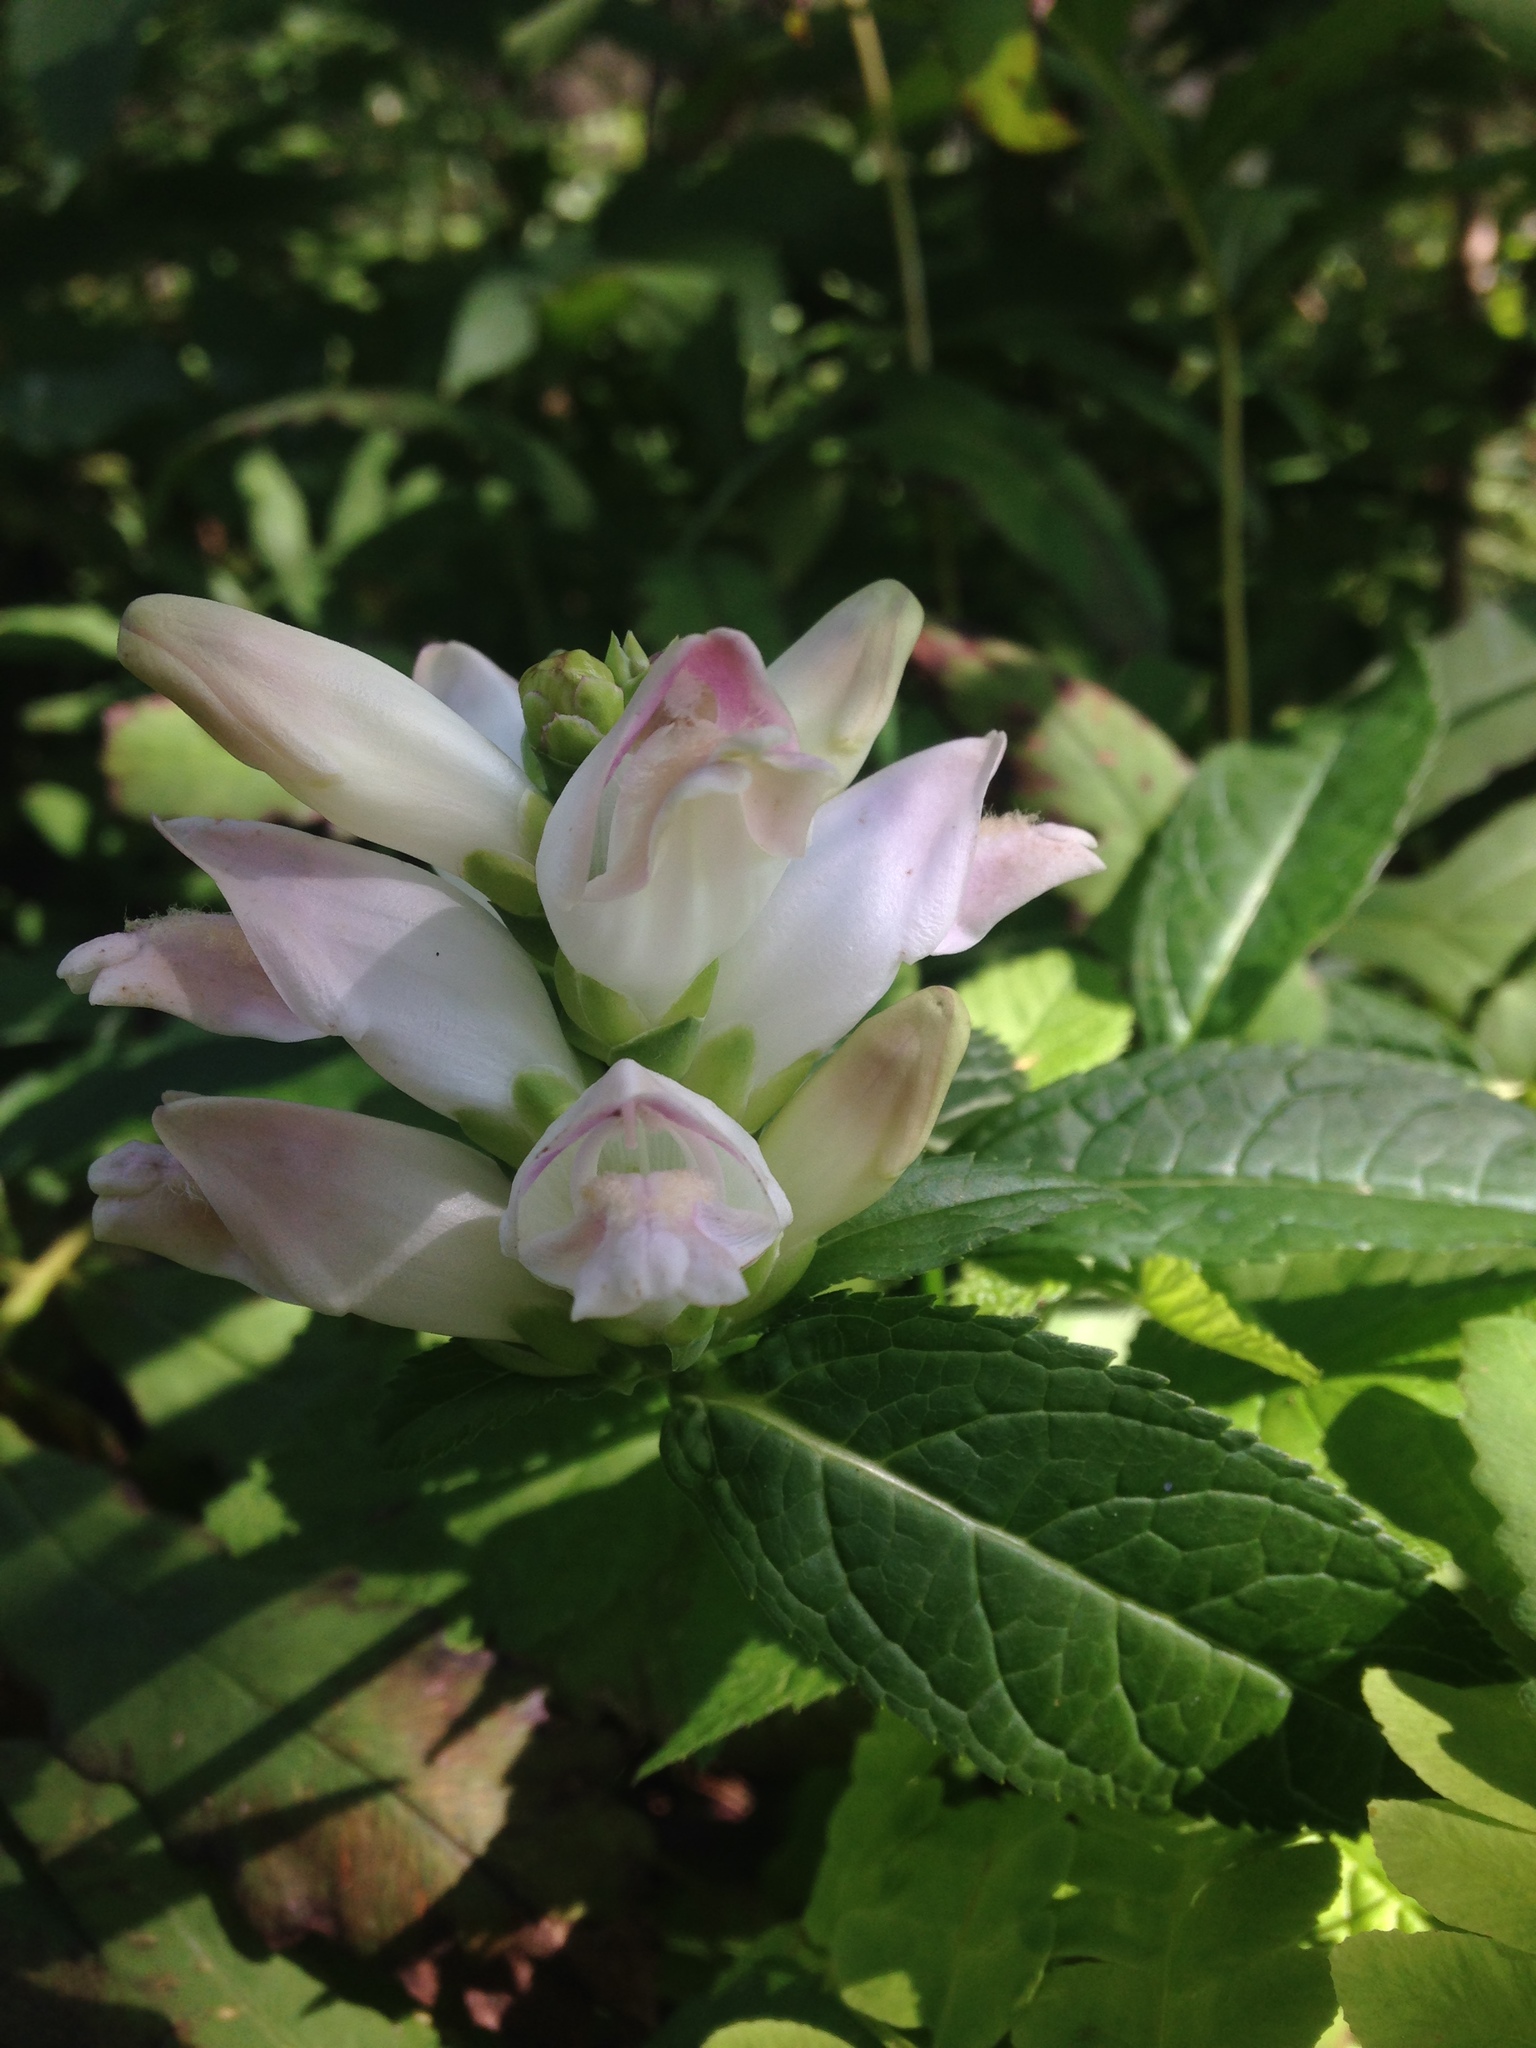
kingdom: Plantae
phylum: Tracheophyta
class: Magnoliopsida
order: Lamiales
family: Plantaginaceae
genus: Chelone
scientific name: Chelone glabra
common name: Snakehead
